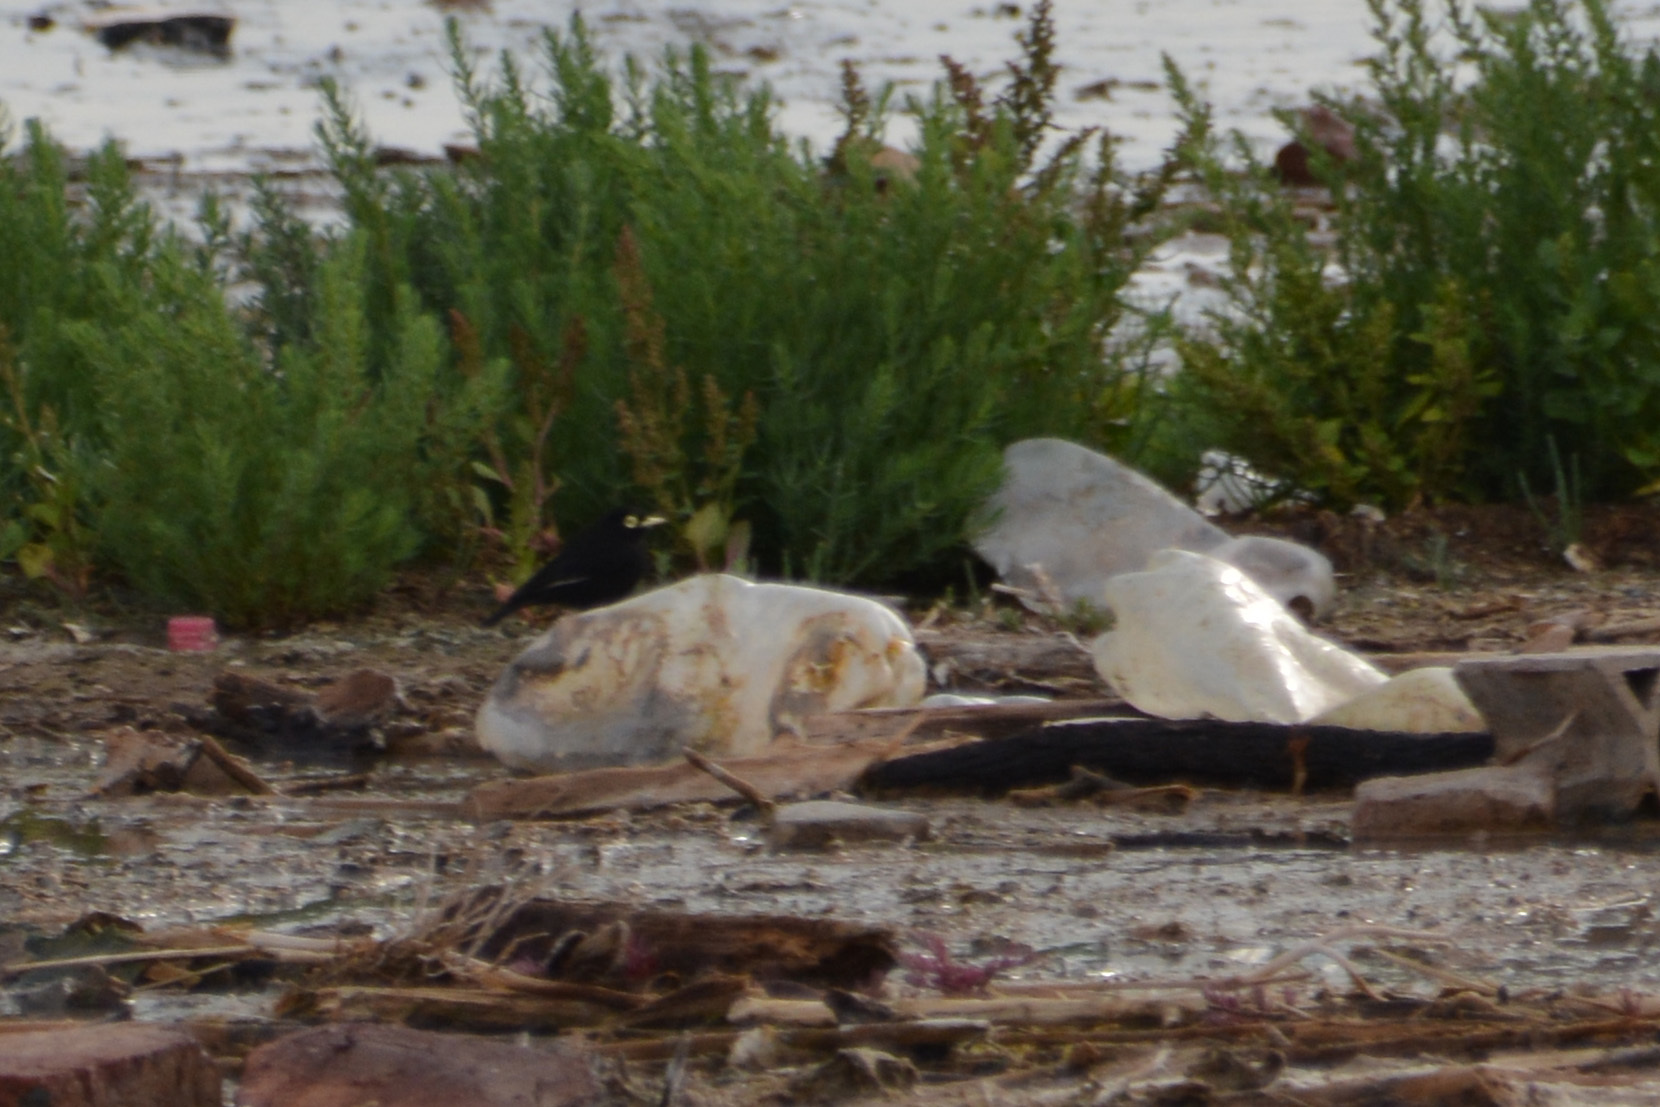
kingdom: Animalia
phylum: Chordata
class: Aves
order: Passeriformes
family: Tyrannidae
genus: Hymenops
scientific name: Hymenops perspicillatus
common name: Spectacled tyrant
